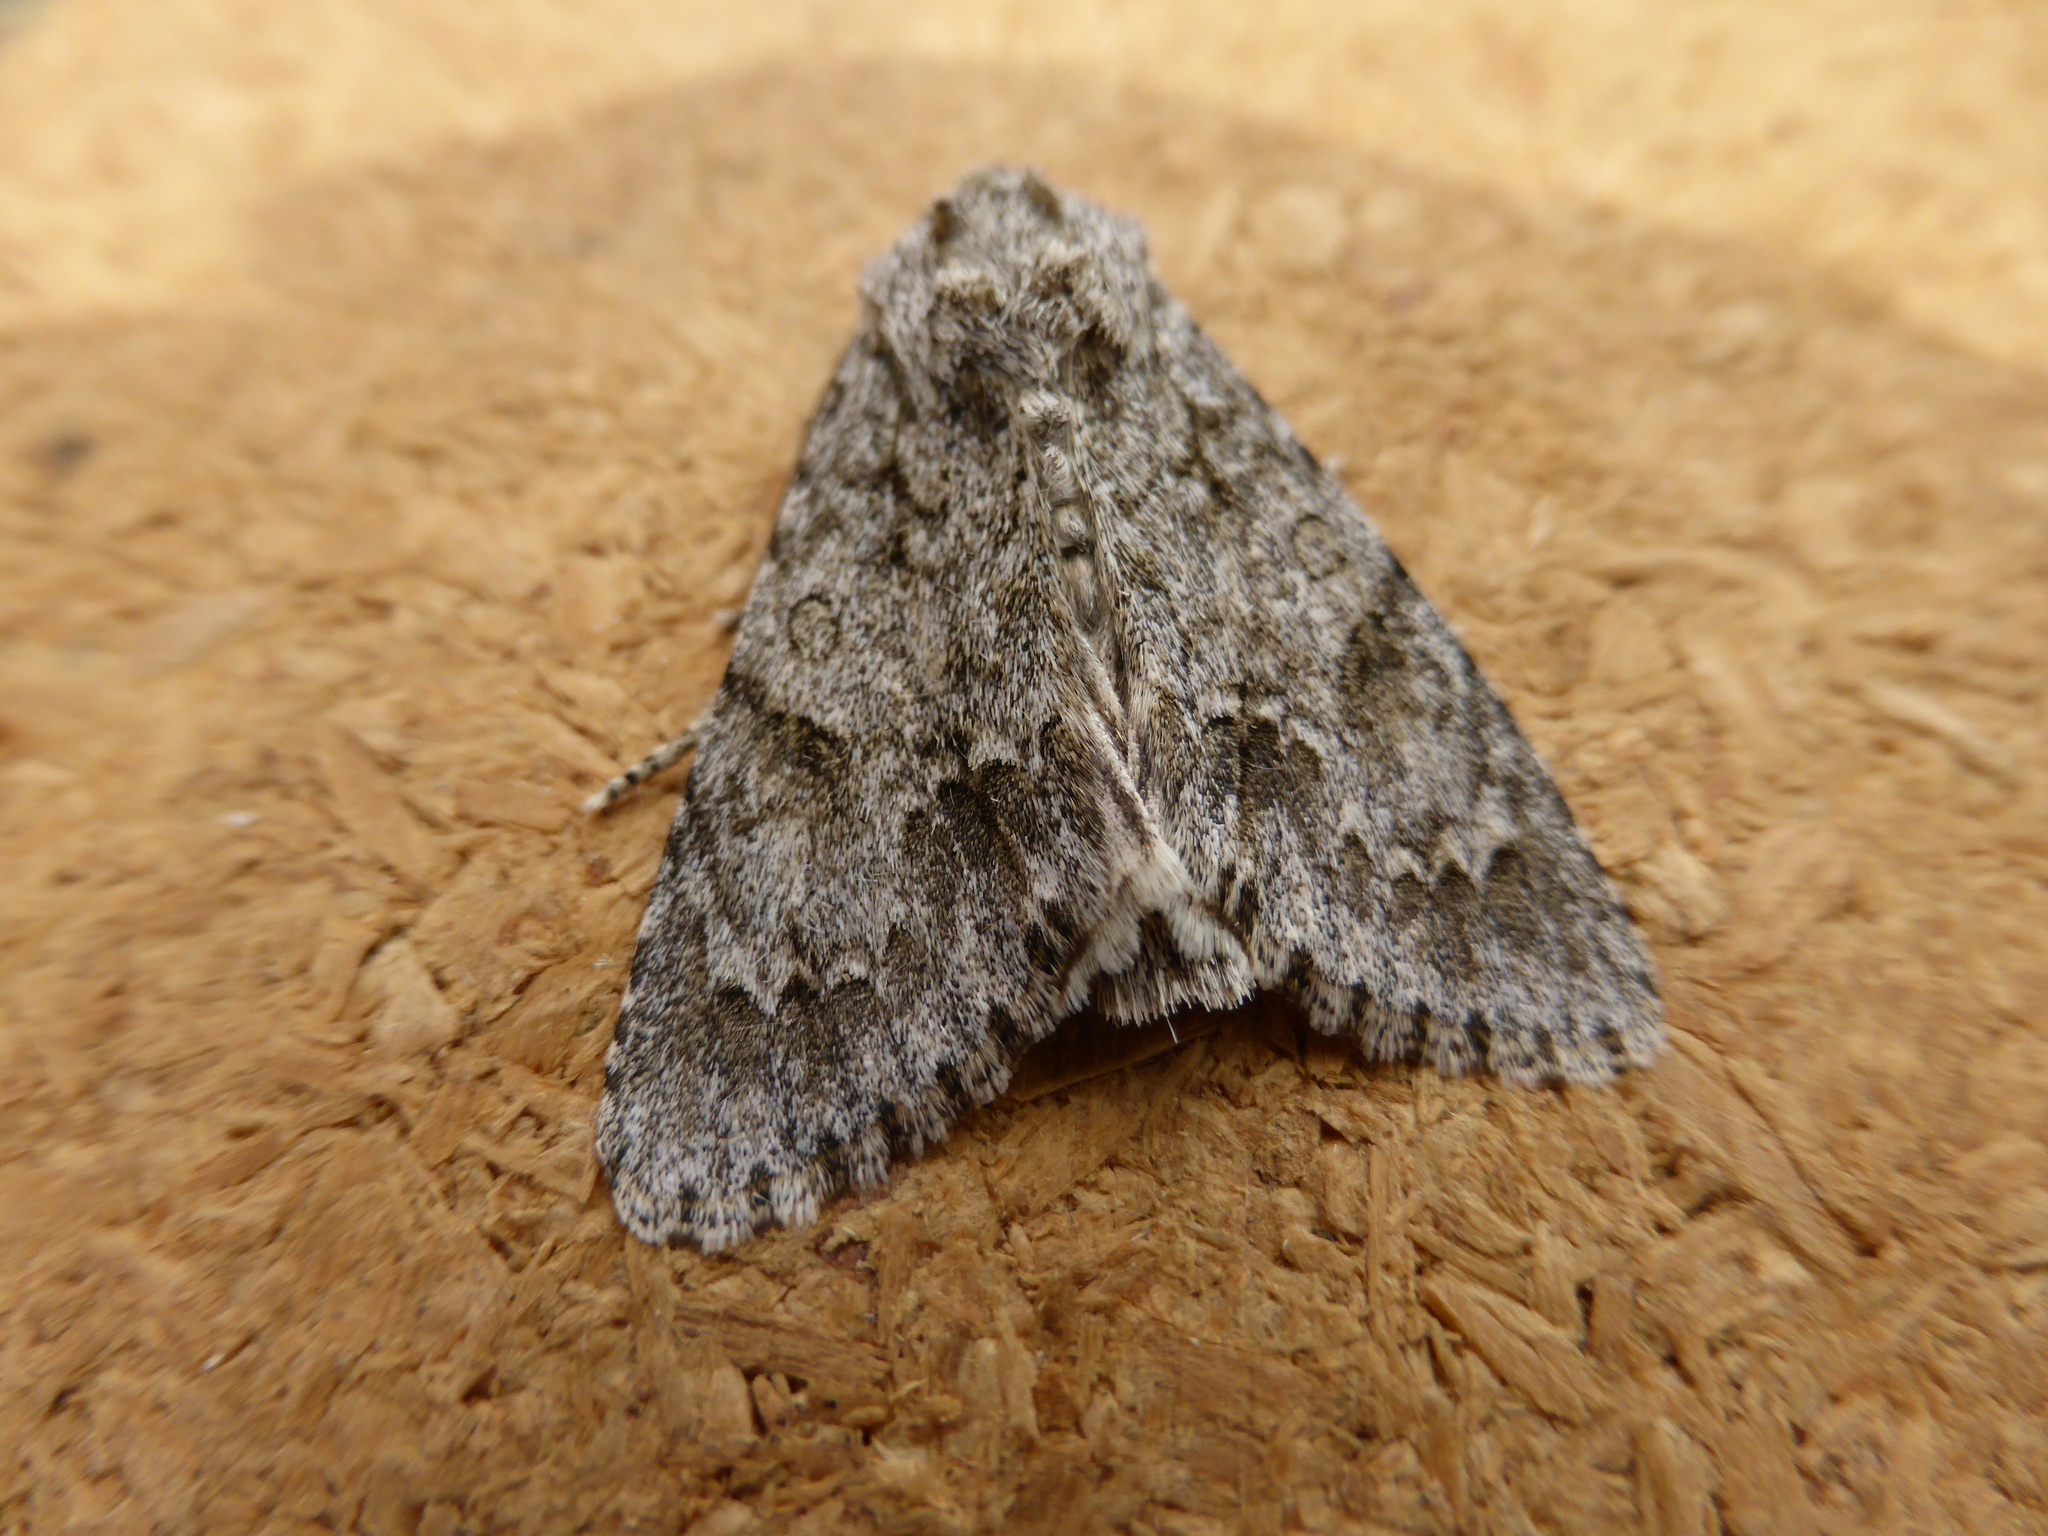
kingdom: Animalia
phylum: Arthropoda
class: Insecta
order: Lepidoptera
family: Noctuidae
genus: Acronicta
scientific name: Acronicta aceris
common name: Sycamore
